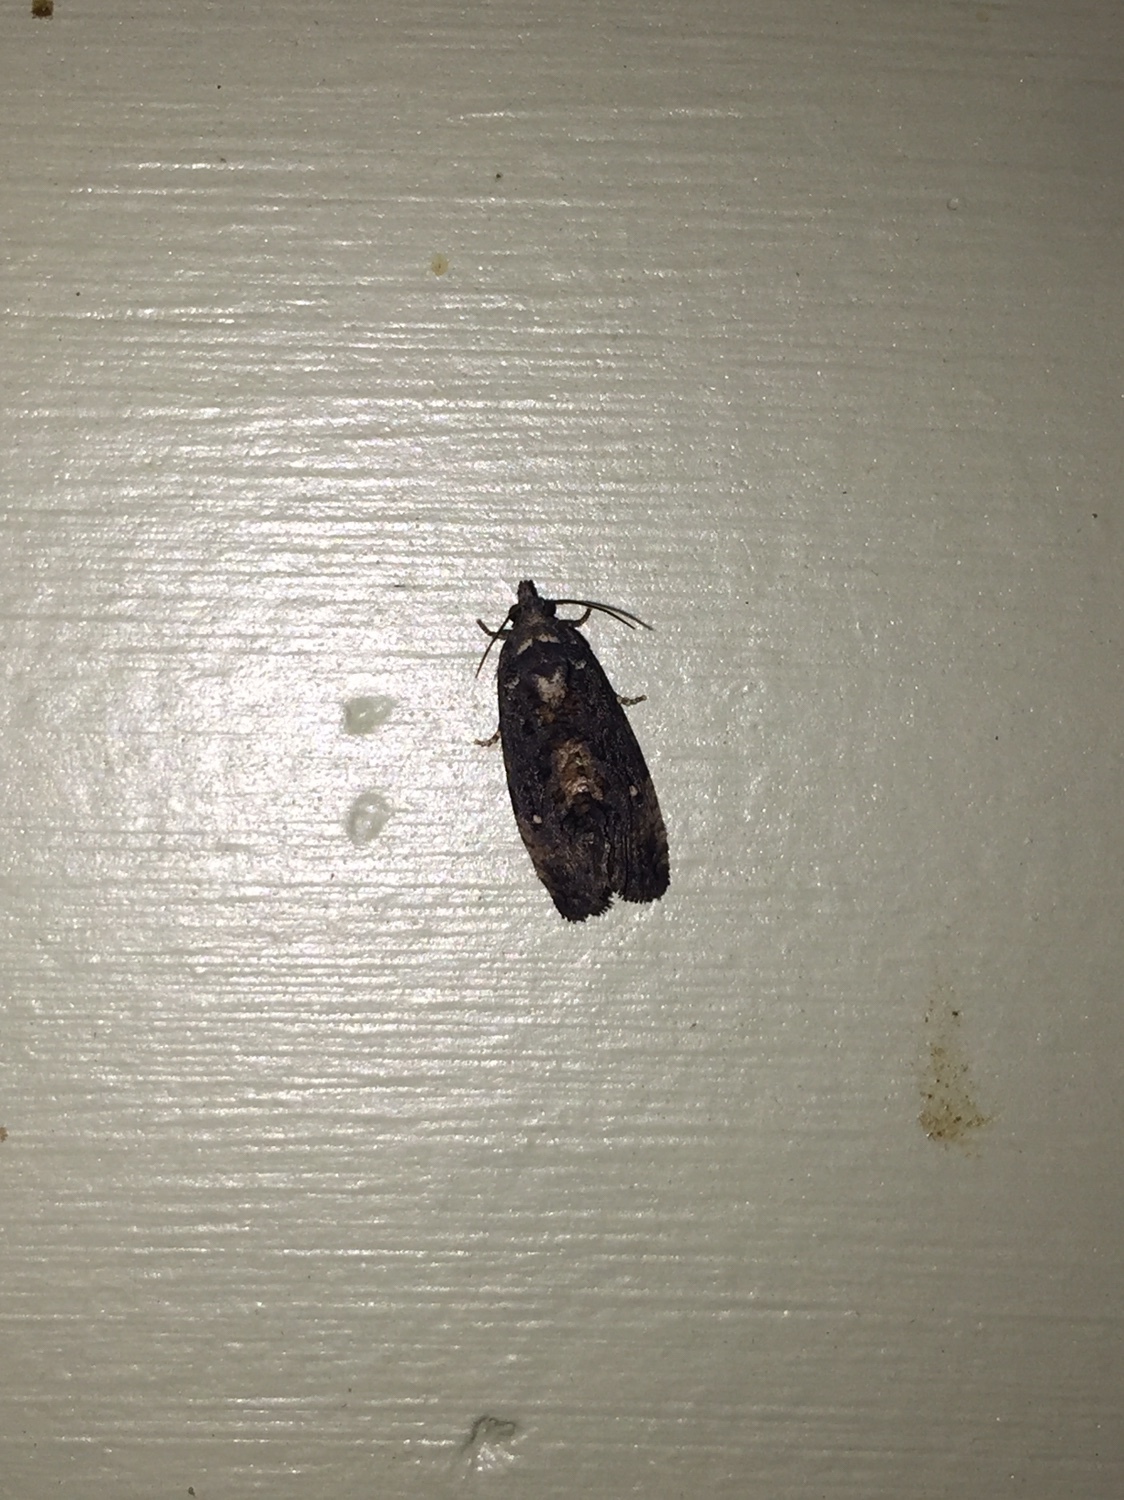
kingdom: Animalia
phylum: Arthropoda
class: Insecta
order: Lepidoptera
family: Tortricidae
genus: Gymnandrosoma
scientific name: Gymnandrosoma punctidiscanum
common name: Dotted ecdytolopha moth
